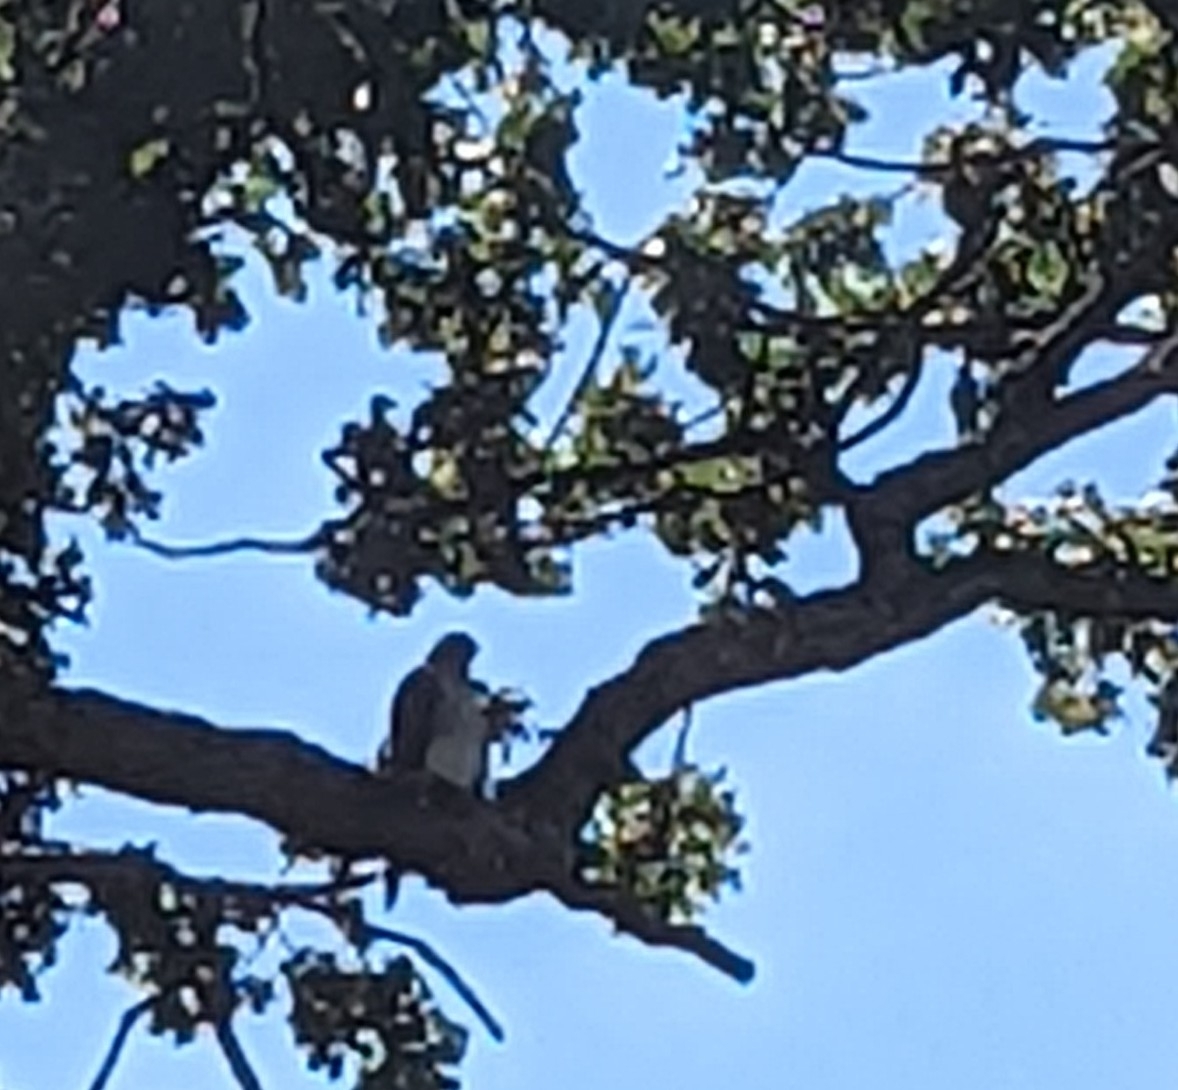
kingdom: Animalia
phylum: Chordata
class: Aves
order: Accipitriformes
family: Accipitridae
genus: Accipiter
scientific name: Accipiter cooperii
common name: Cooper's hawk
